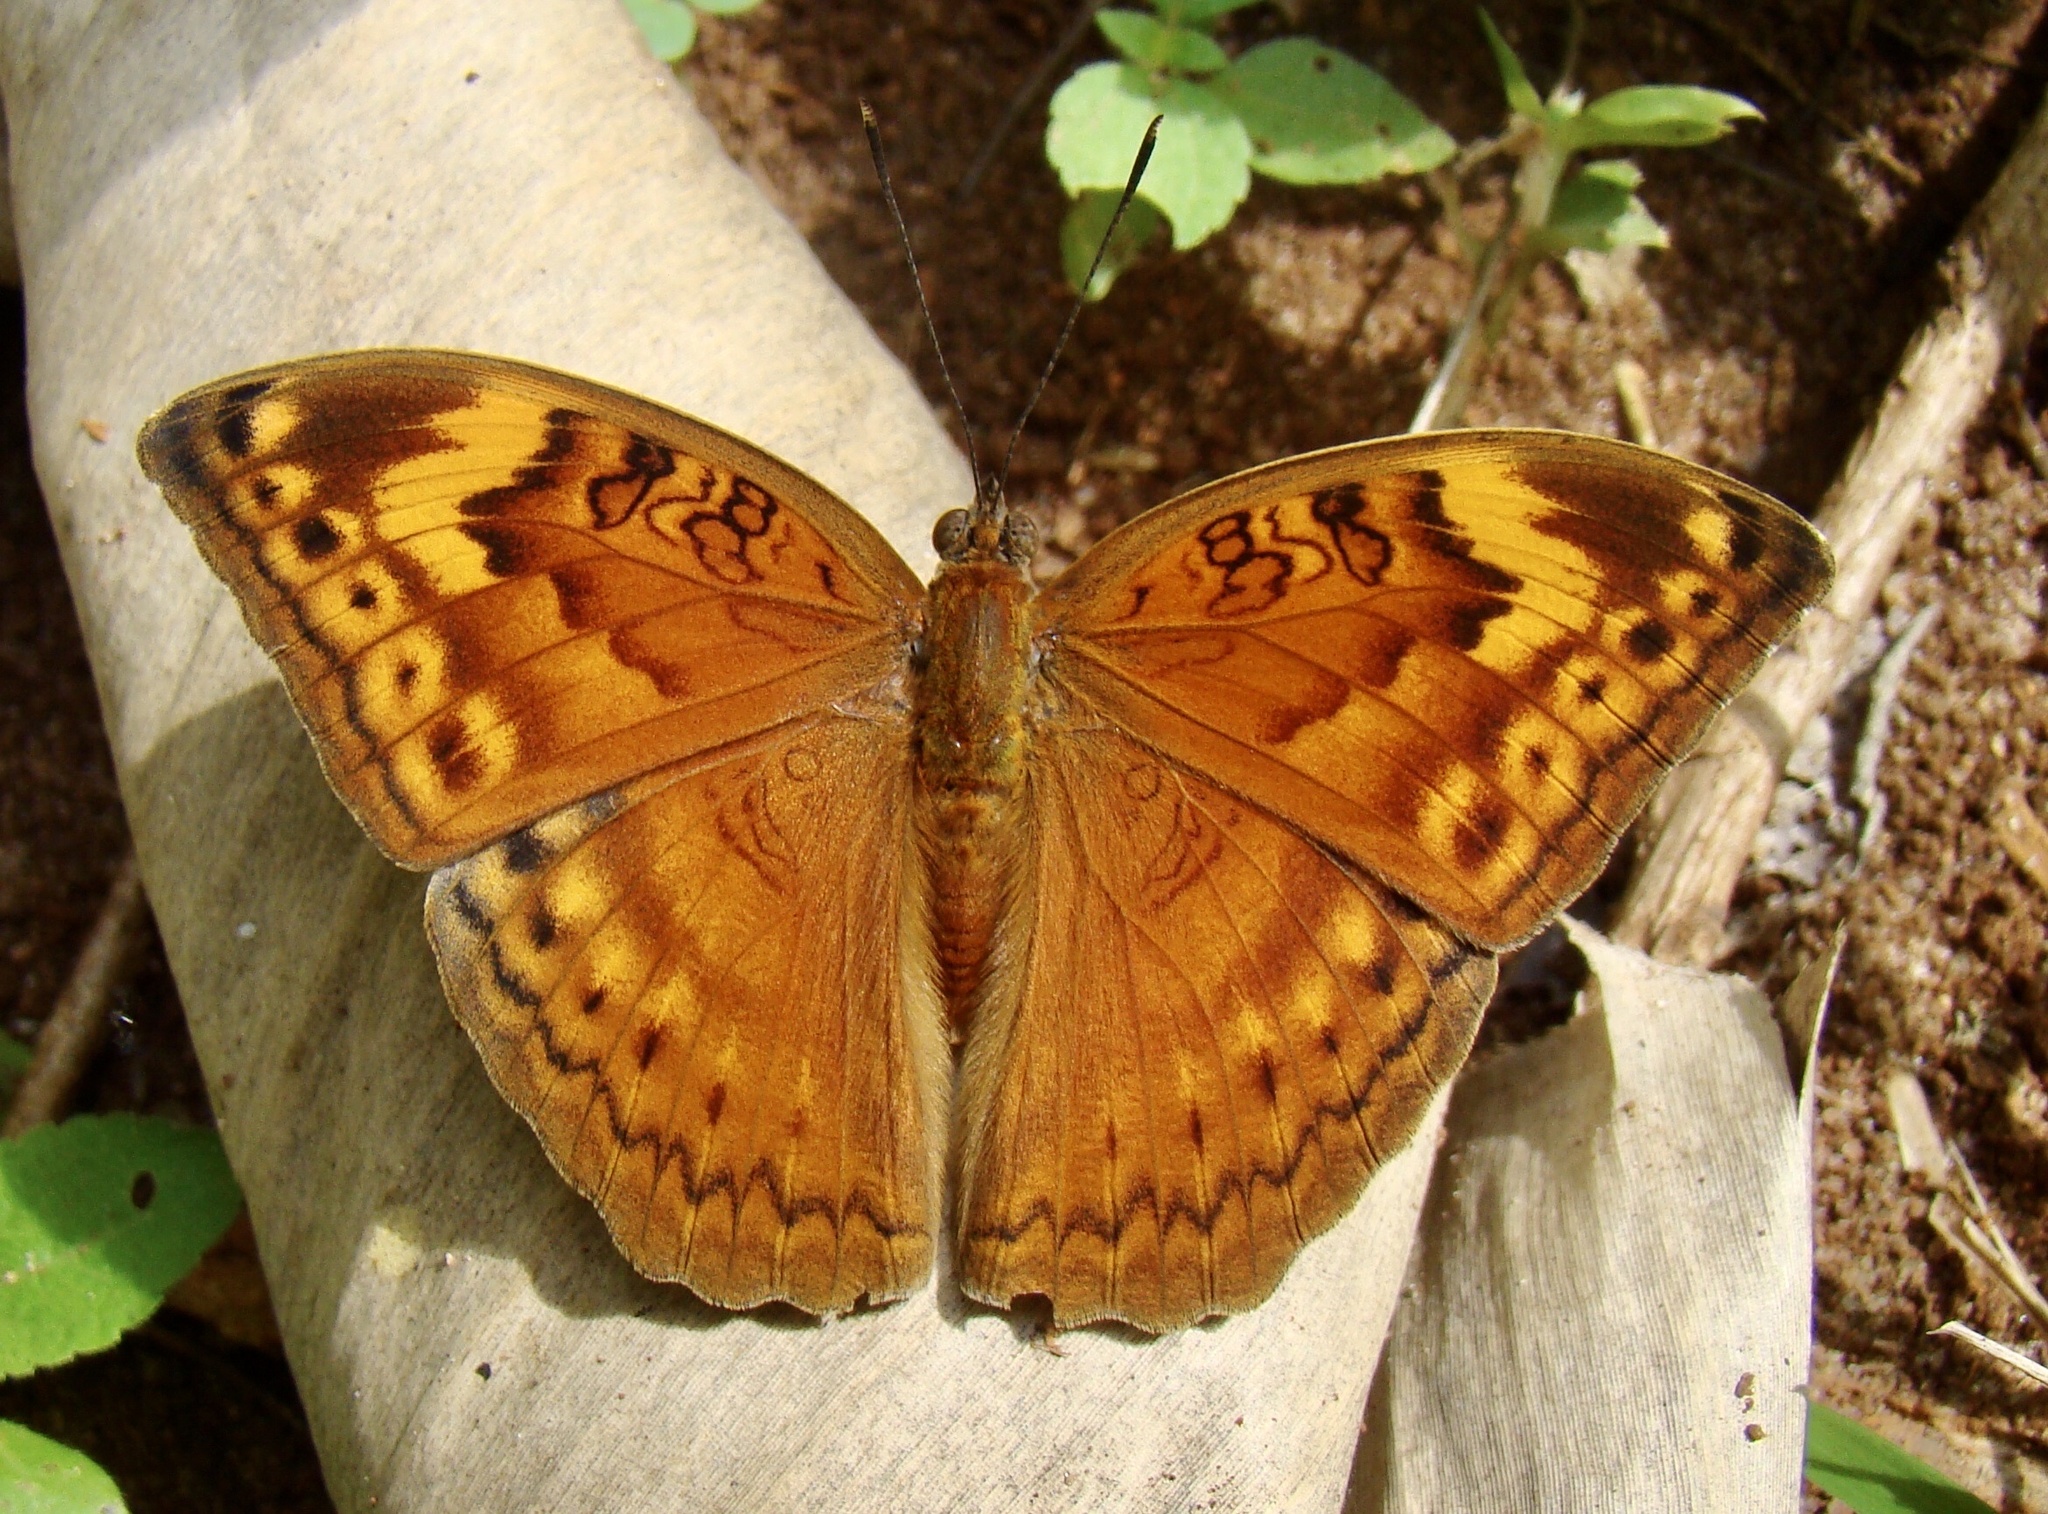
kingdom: Animalia
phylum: Arthropoda
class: Insecta
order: Lepidoptera
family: Nymphalidae
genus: Bebearia
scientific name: Bebearia orientis
